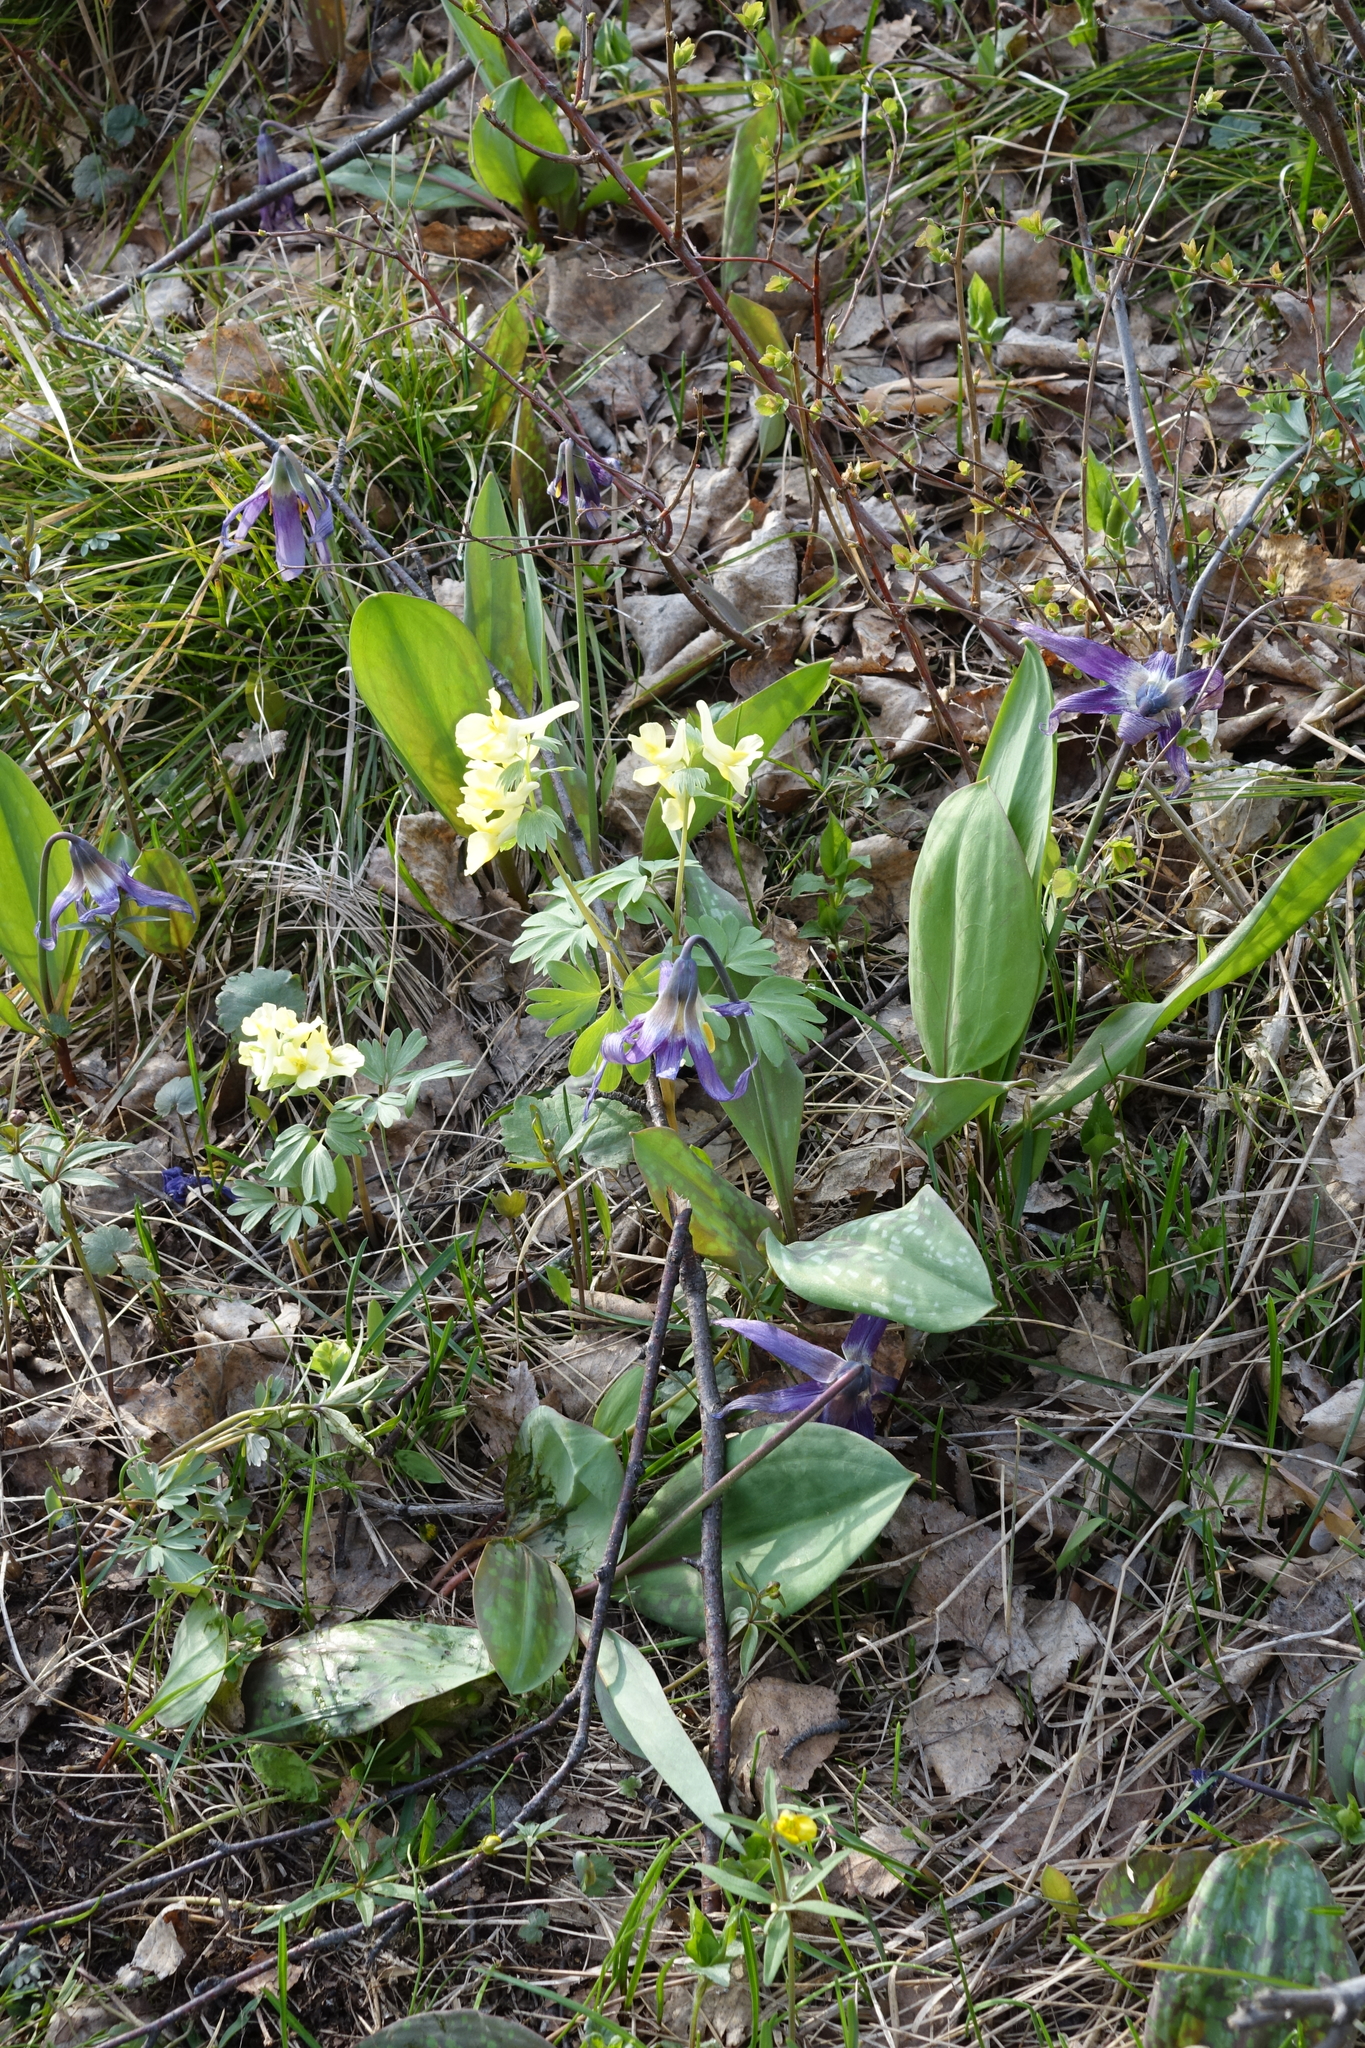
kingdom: Plantae
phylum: Tracheophyta
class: Liliopsida
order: Liliales
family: Liliaceae
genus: Erythronium
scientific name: Erythronium sibiricum
